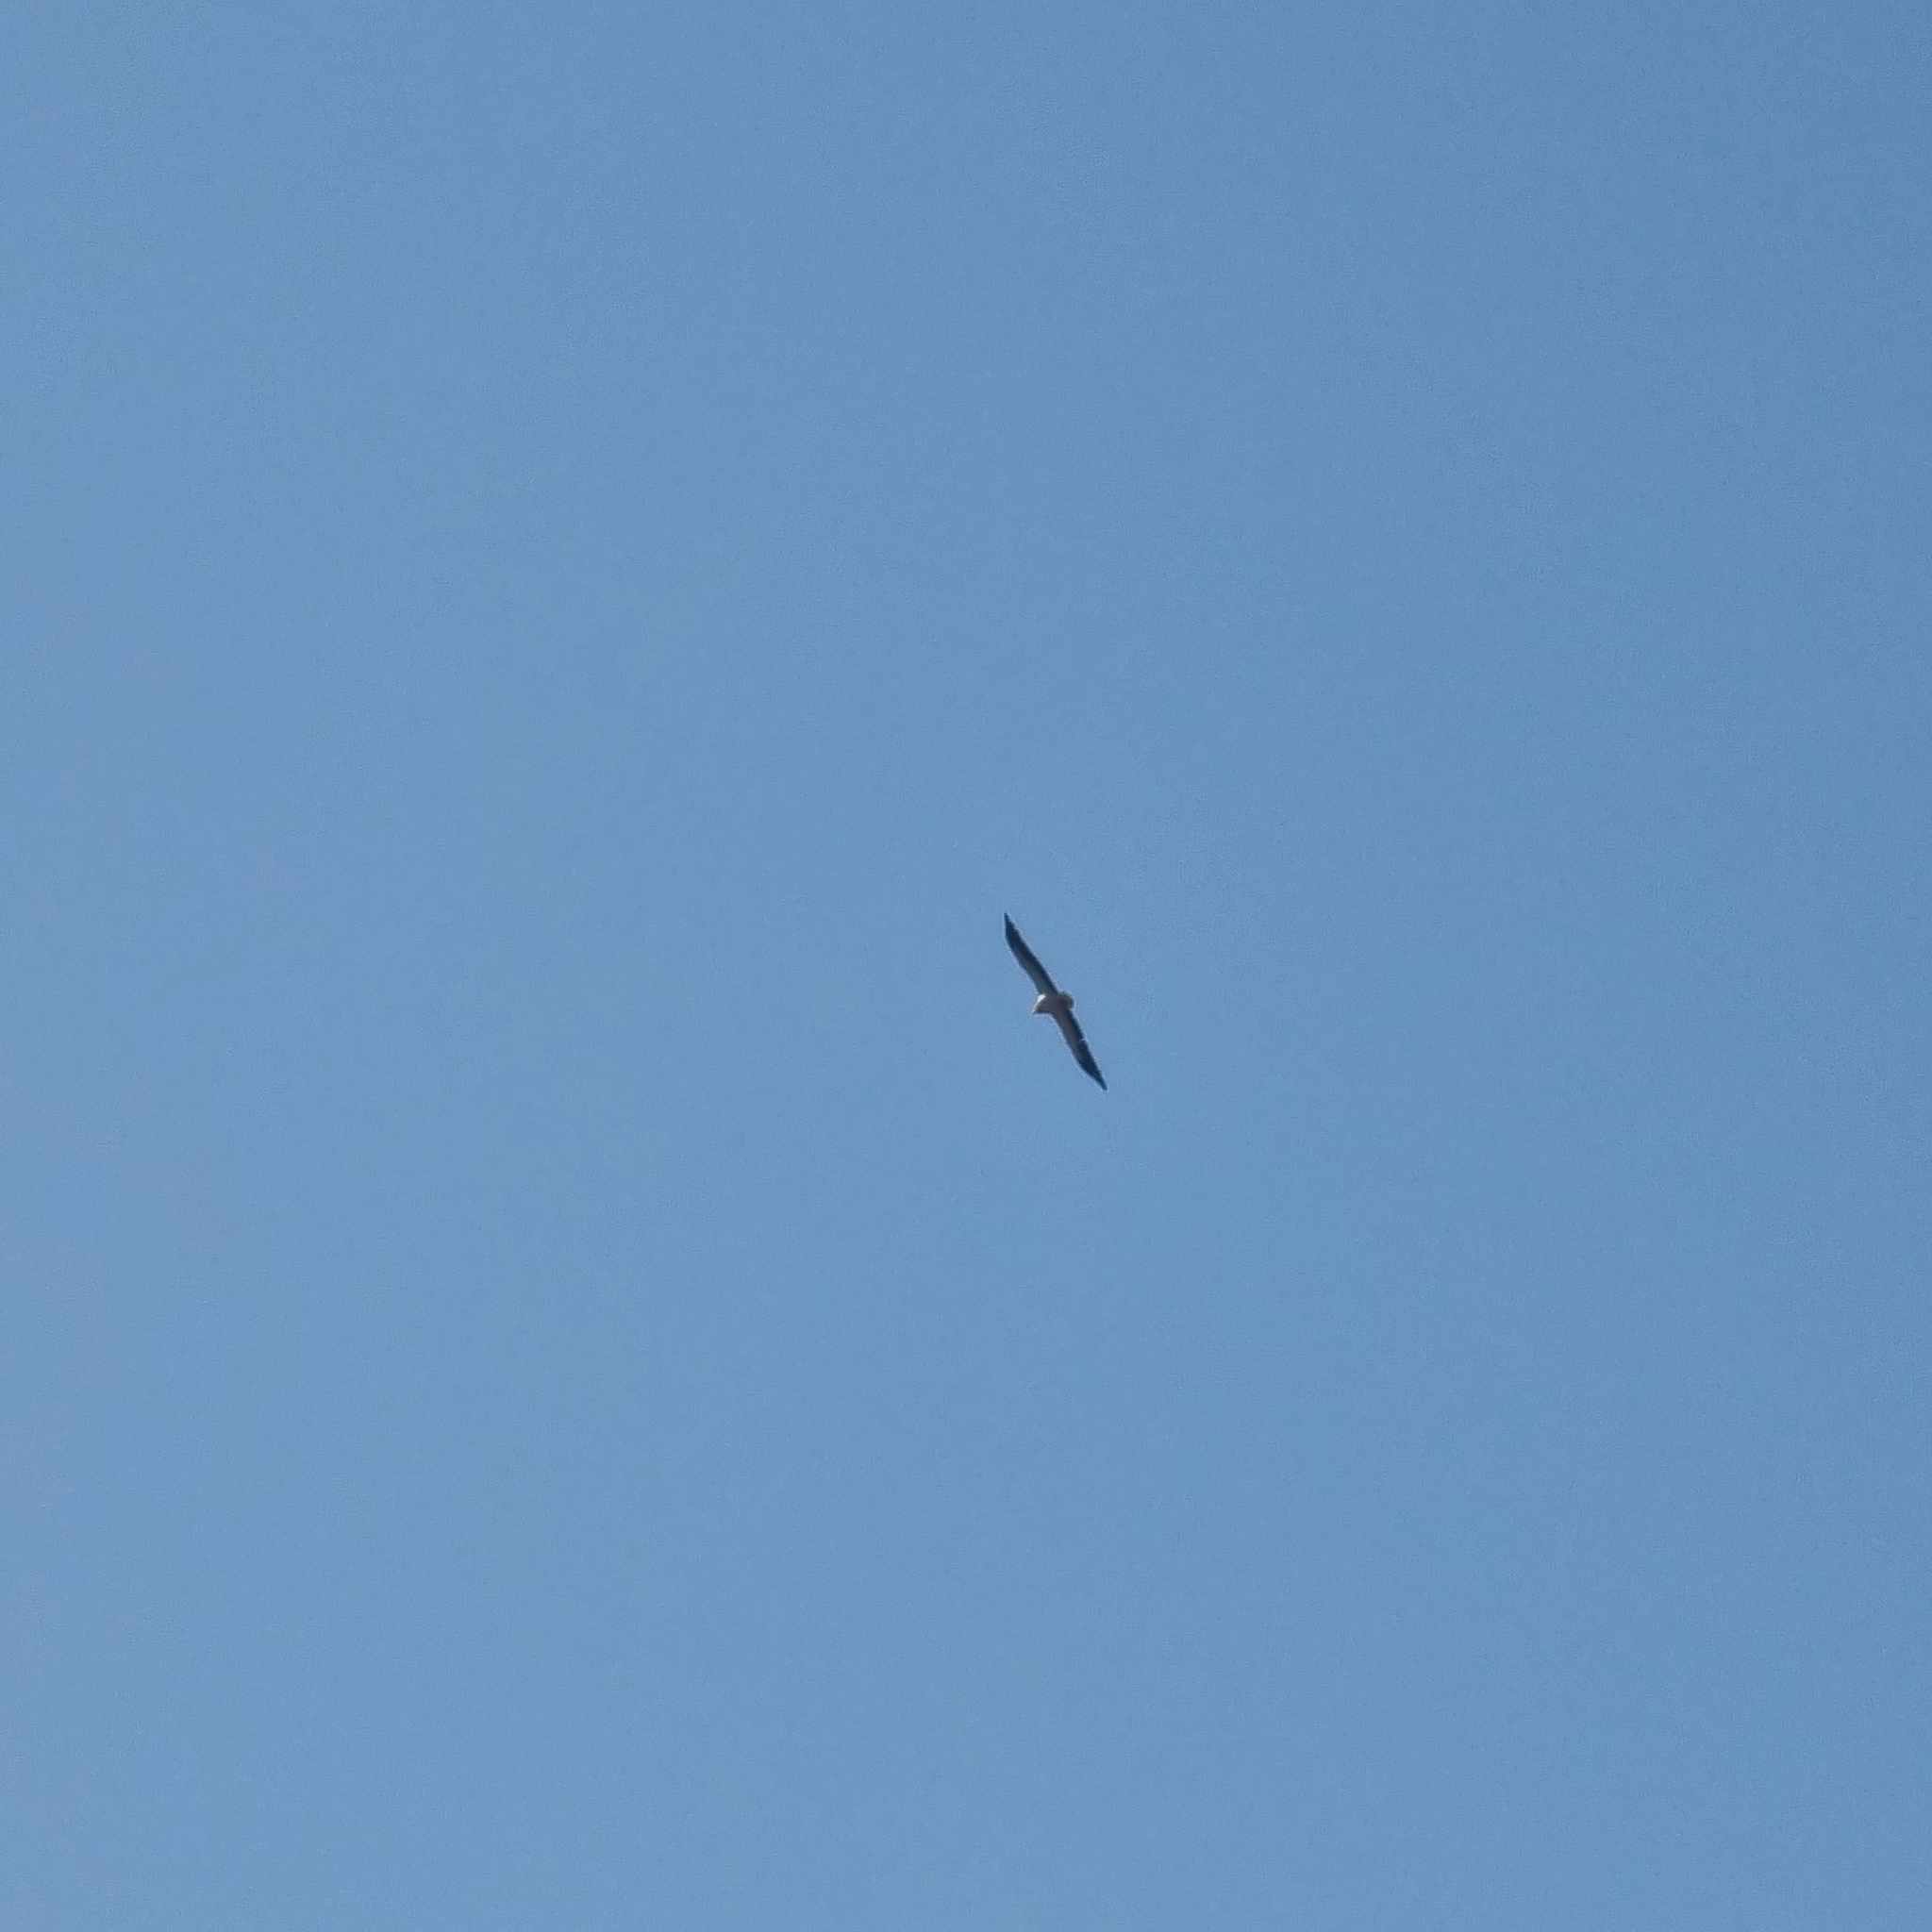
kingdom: Animalia
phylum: Chordata
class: Aves
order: Accipitriformes
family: Accipitridae
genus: Neophron
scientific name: Neophron percnopterus
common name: Egyptian vulture
